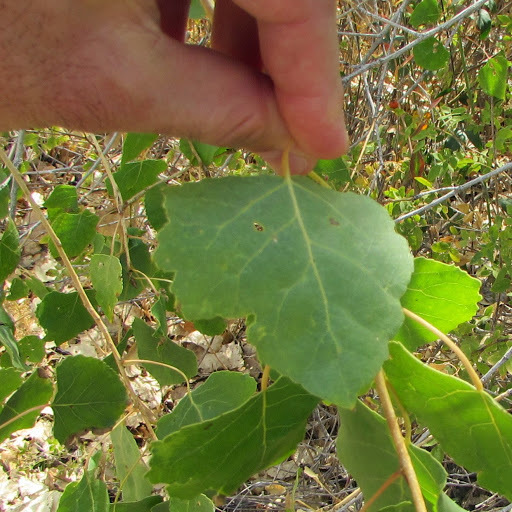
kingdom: Plantae
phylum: Tracheophyta
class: Magnoliopsida
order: Malpighiales
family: Salicaceae
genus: Populus
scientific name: Populus fremontii
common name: Fremont's cottonwood
